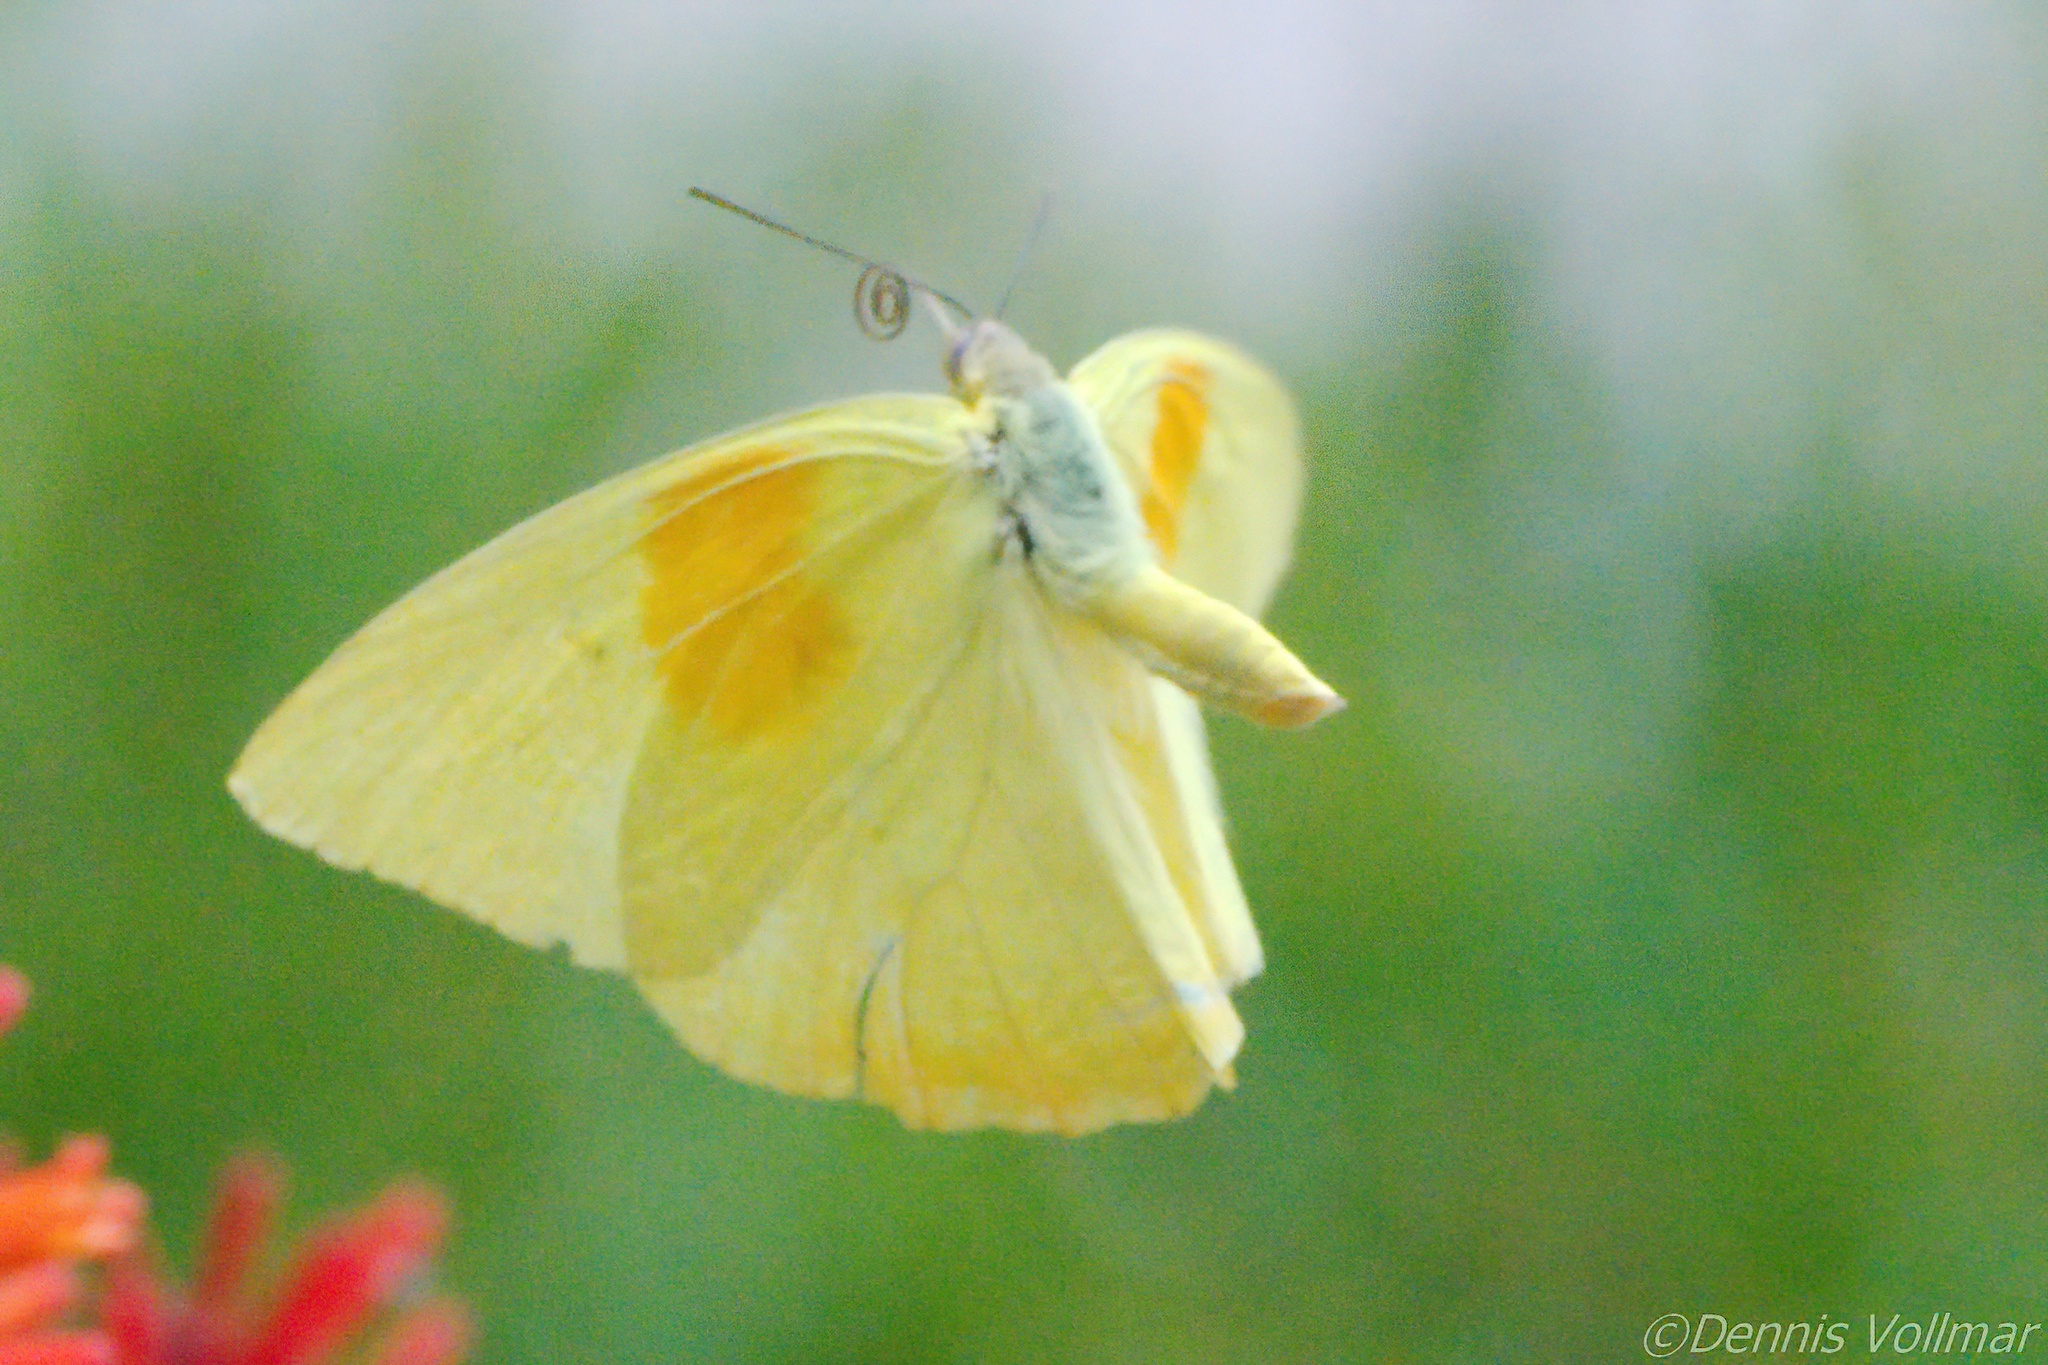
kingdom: Animalia
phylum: Arthropoda
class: Insecta
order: Lepidoptera
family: Pieridae
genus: Phoebis
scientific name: Phoebis philea
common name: Orange-barred giant sulphur
